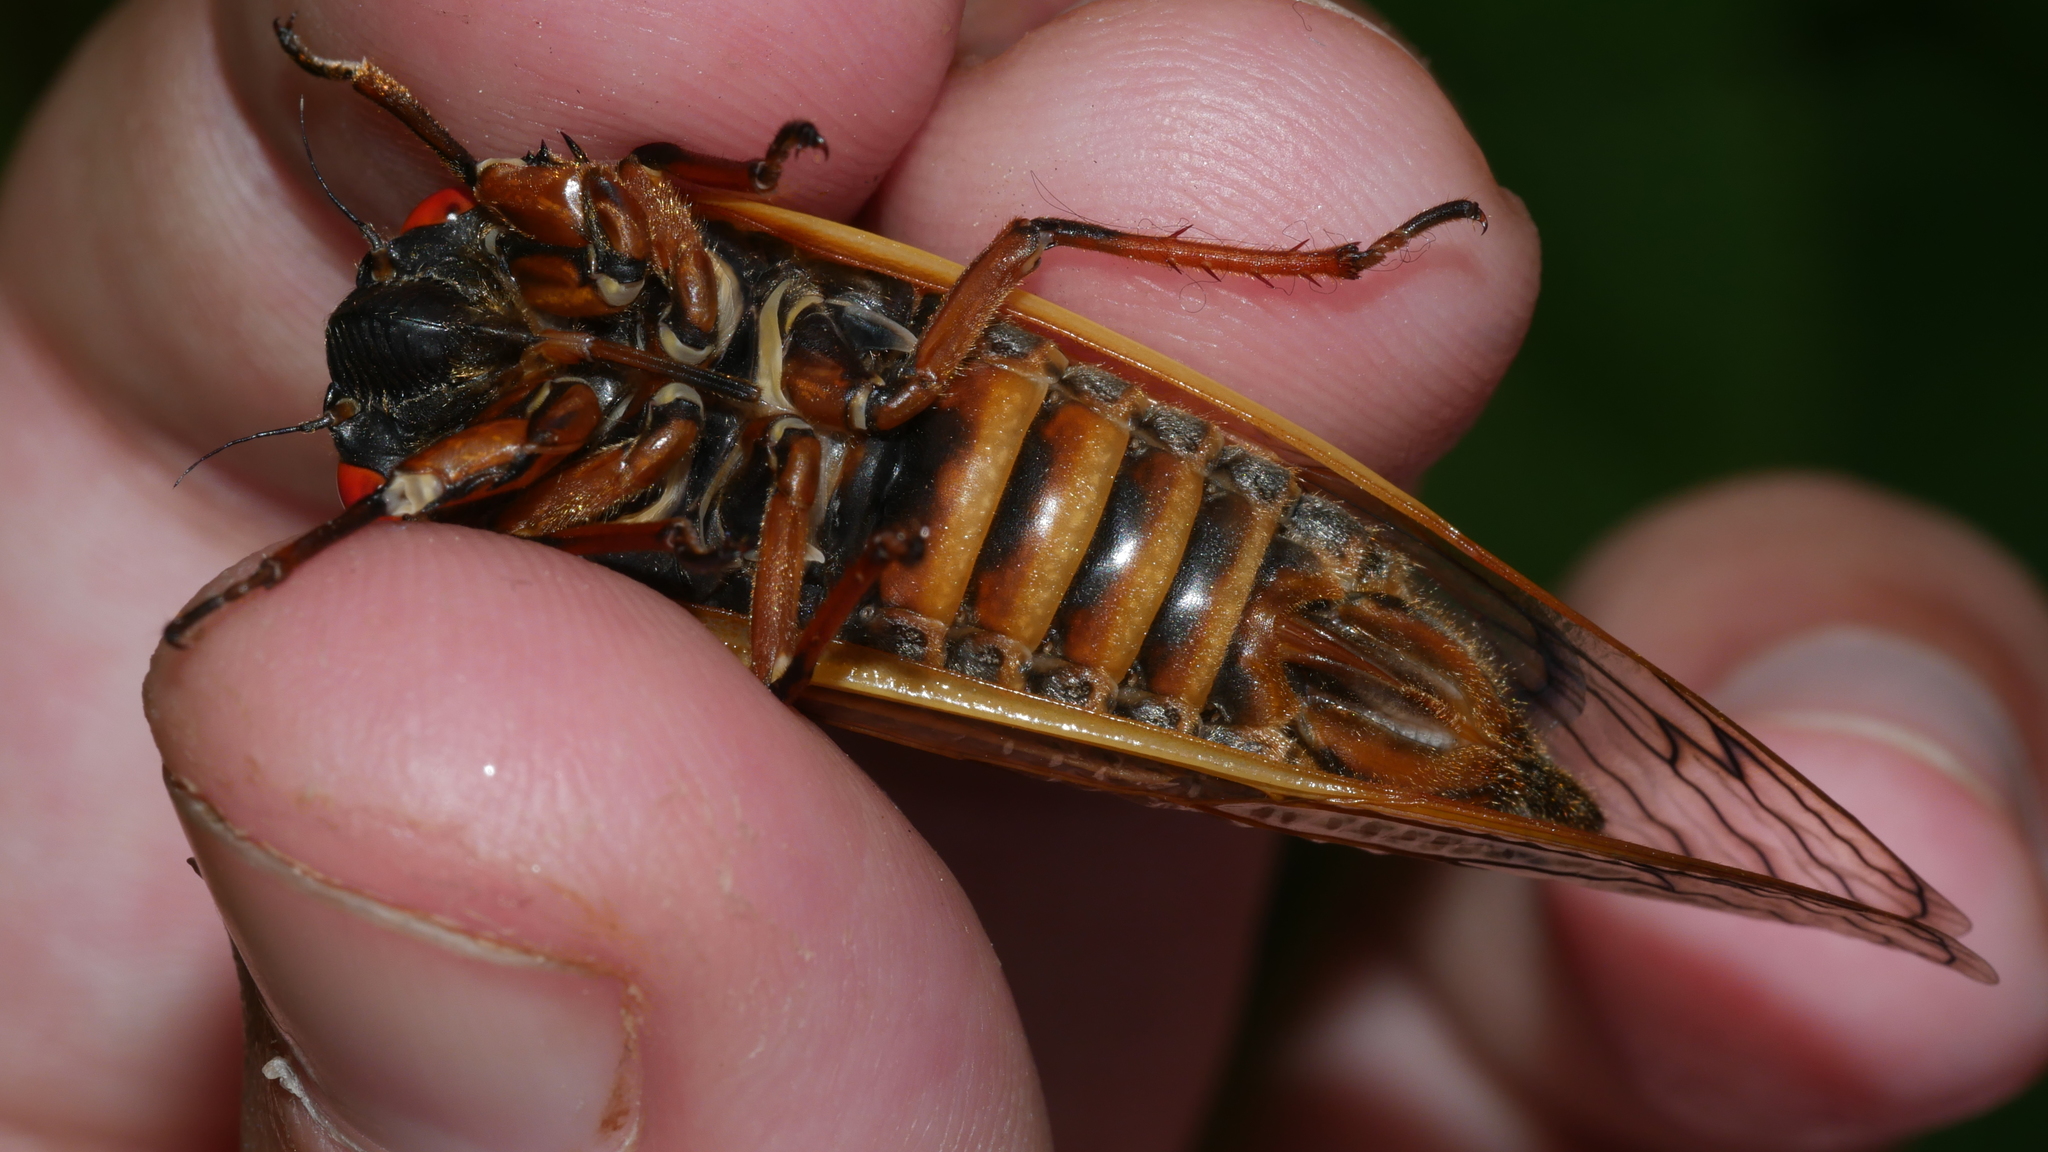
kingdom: Animalia
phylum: Arthropoda
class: Insecta
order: Hemiptera
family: Cicadidae
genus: Magicicada
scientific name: Magicicada septendecim
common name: Periodical cicada
